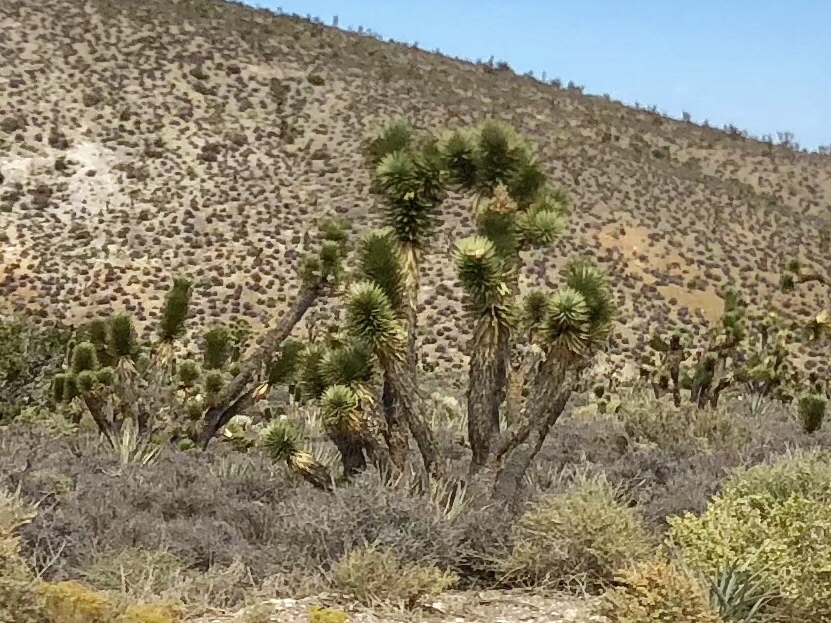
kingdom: Plantae
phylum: Tracheophyta
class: Liliopsida
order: Asparagales
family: Asparagaceae
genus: Yucca
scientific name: Yucca brevifolia
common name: Joshua tree
